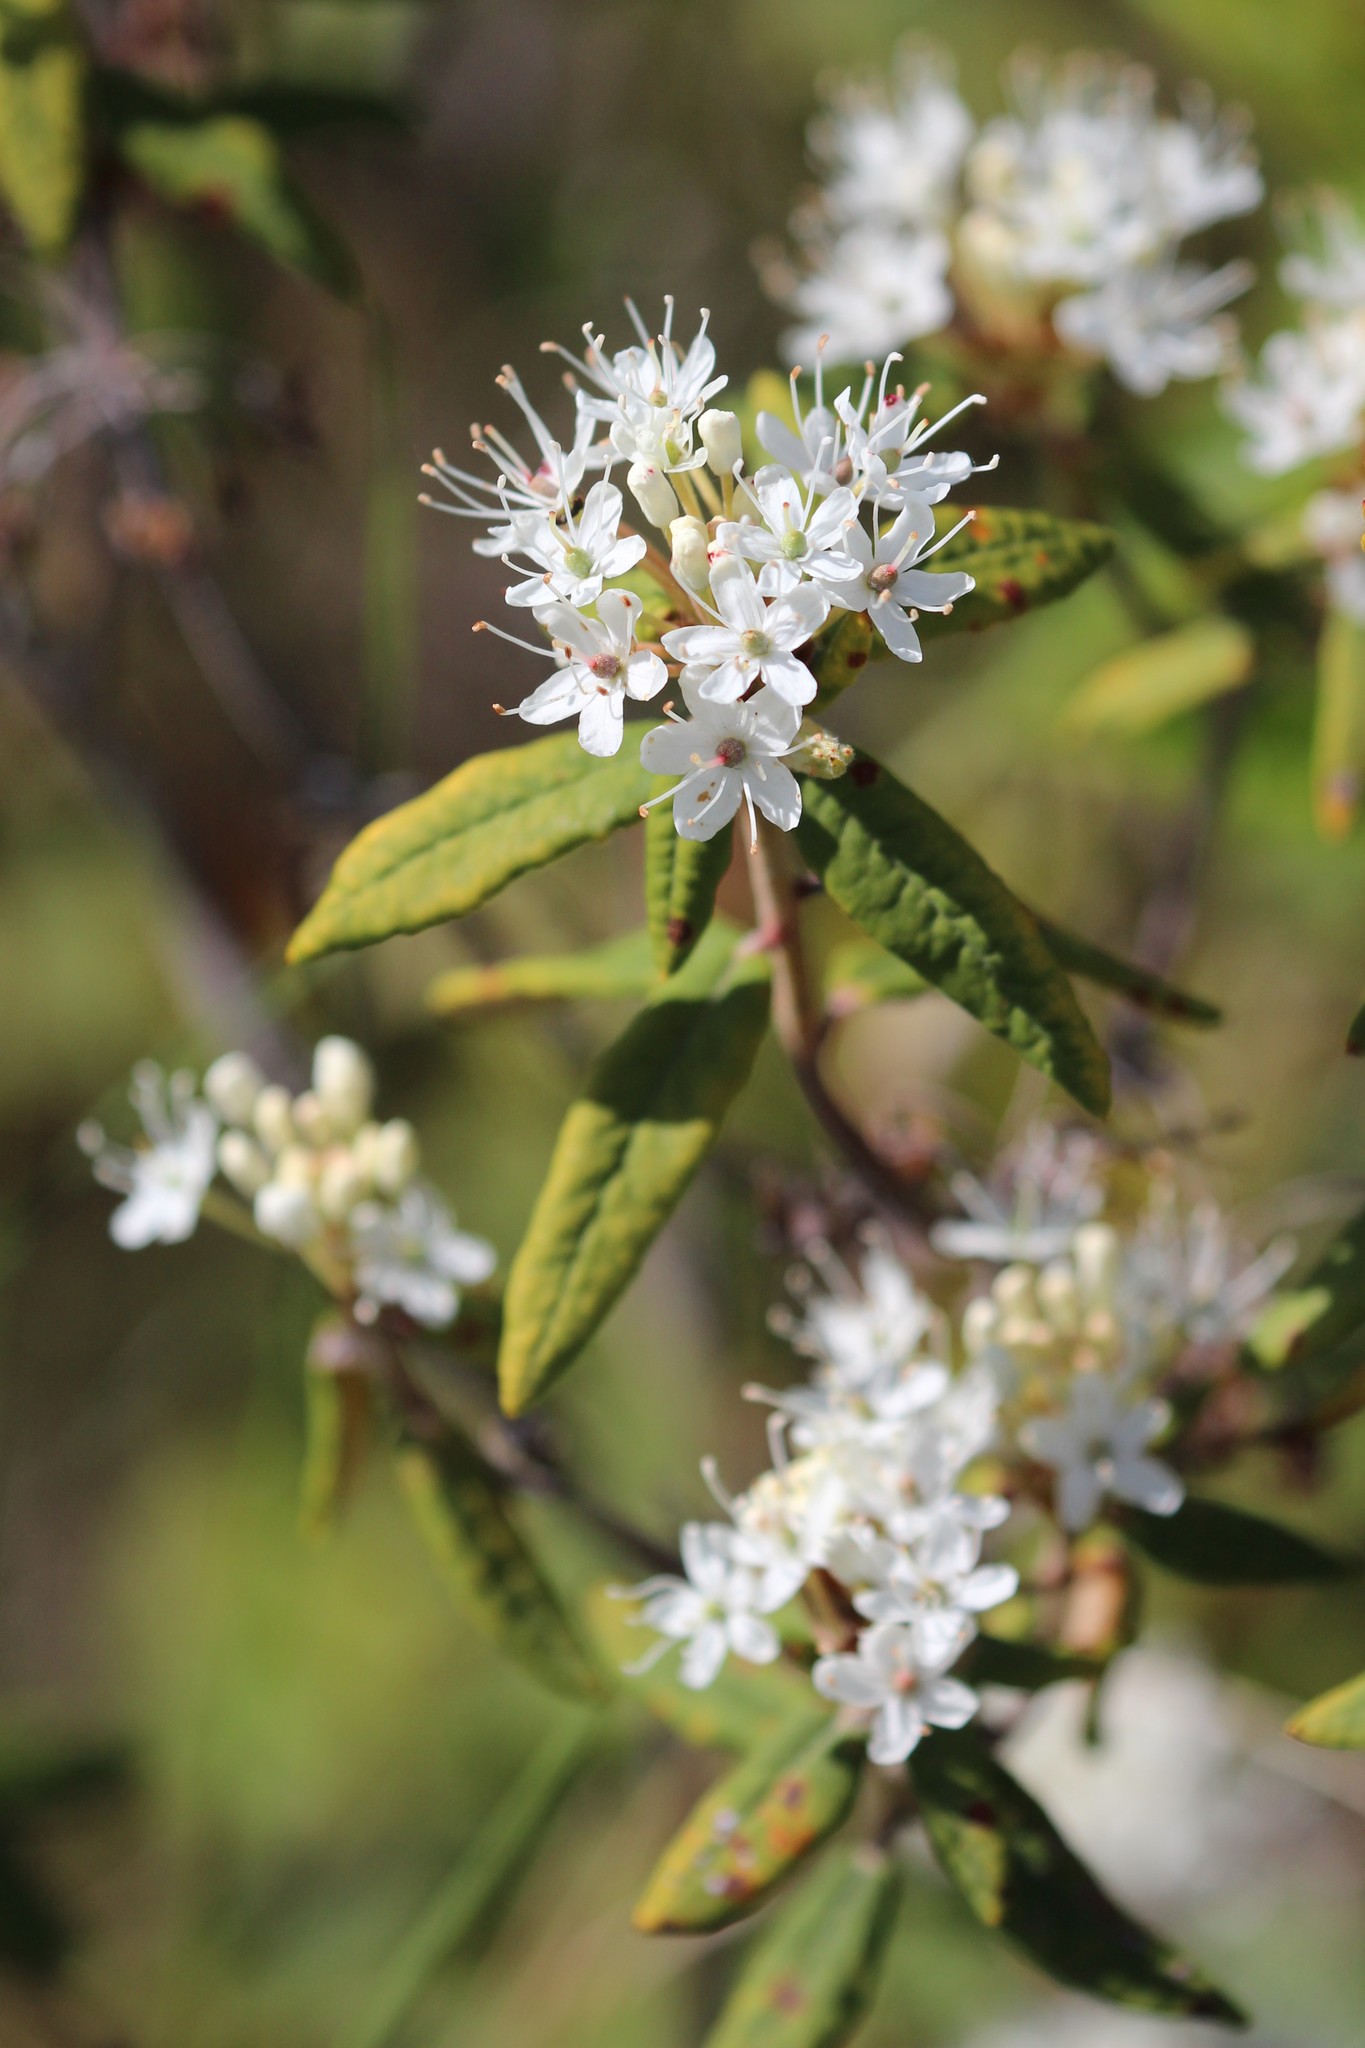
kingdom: Plantae
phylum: Tracheophyta
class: Magnoliopsida
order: Ericales
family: Ericaceae
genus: Rhododendron
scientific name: Rhododendron groenlandicum
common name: Bog labrador tea
